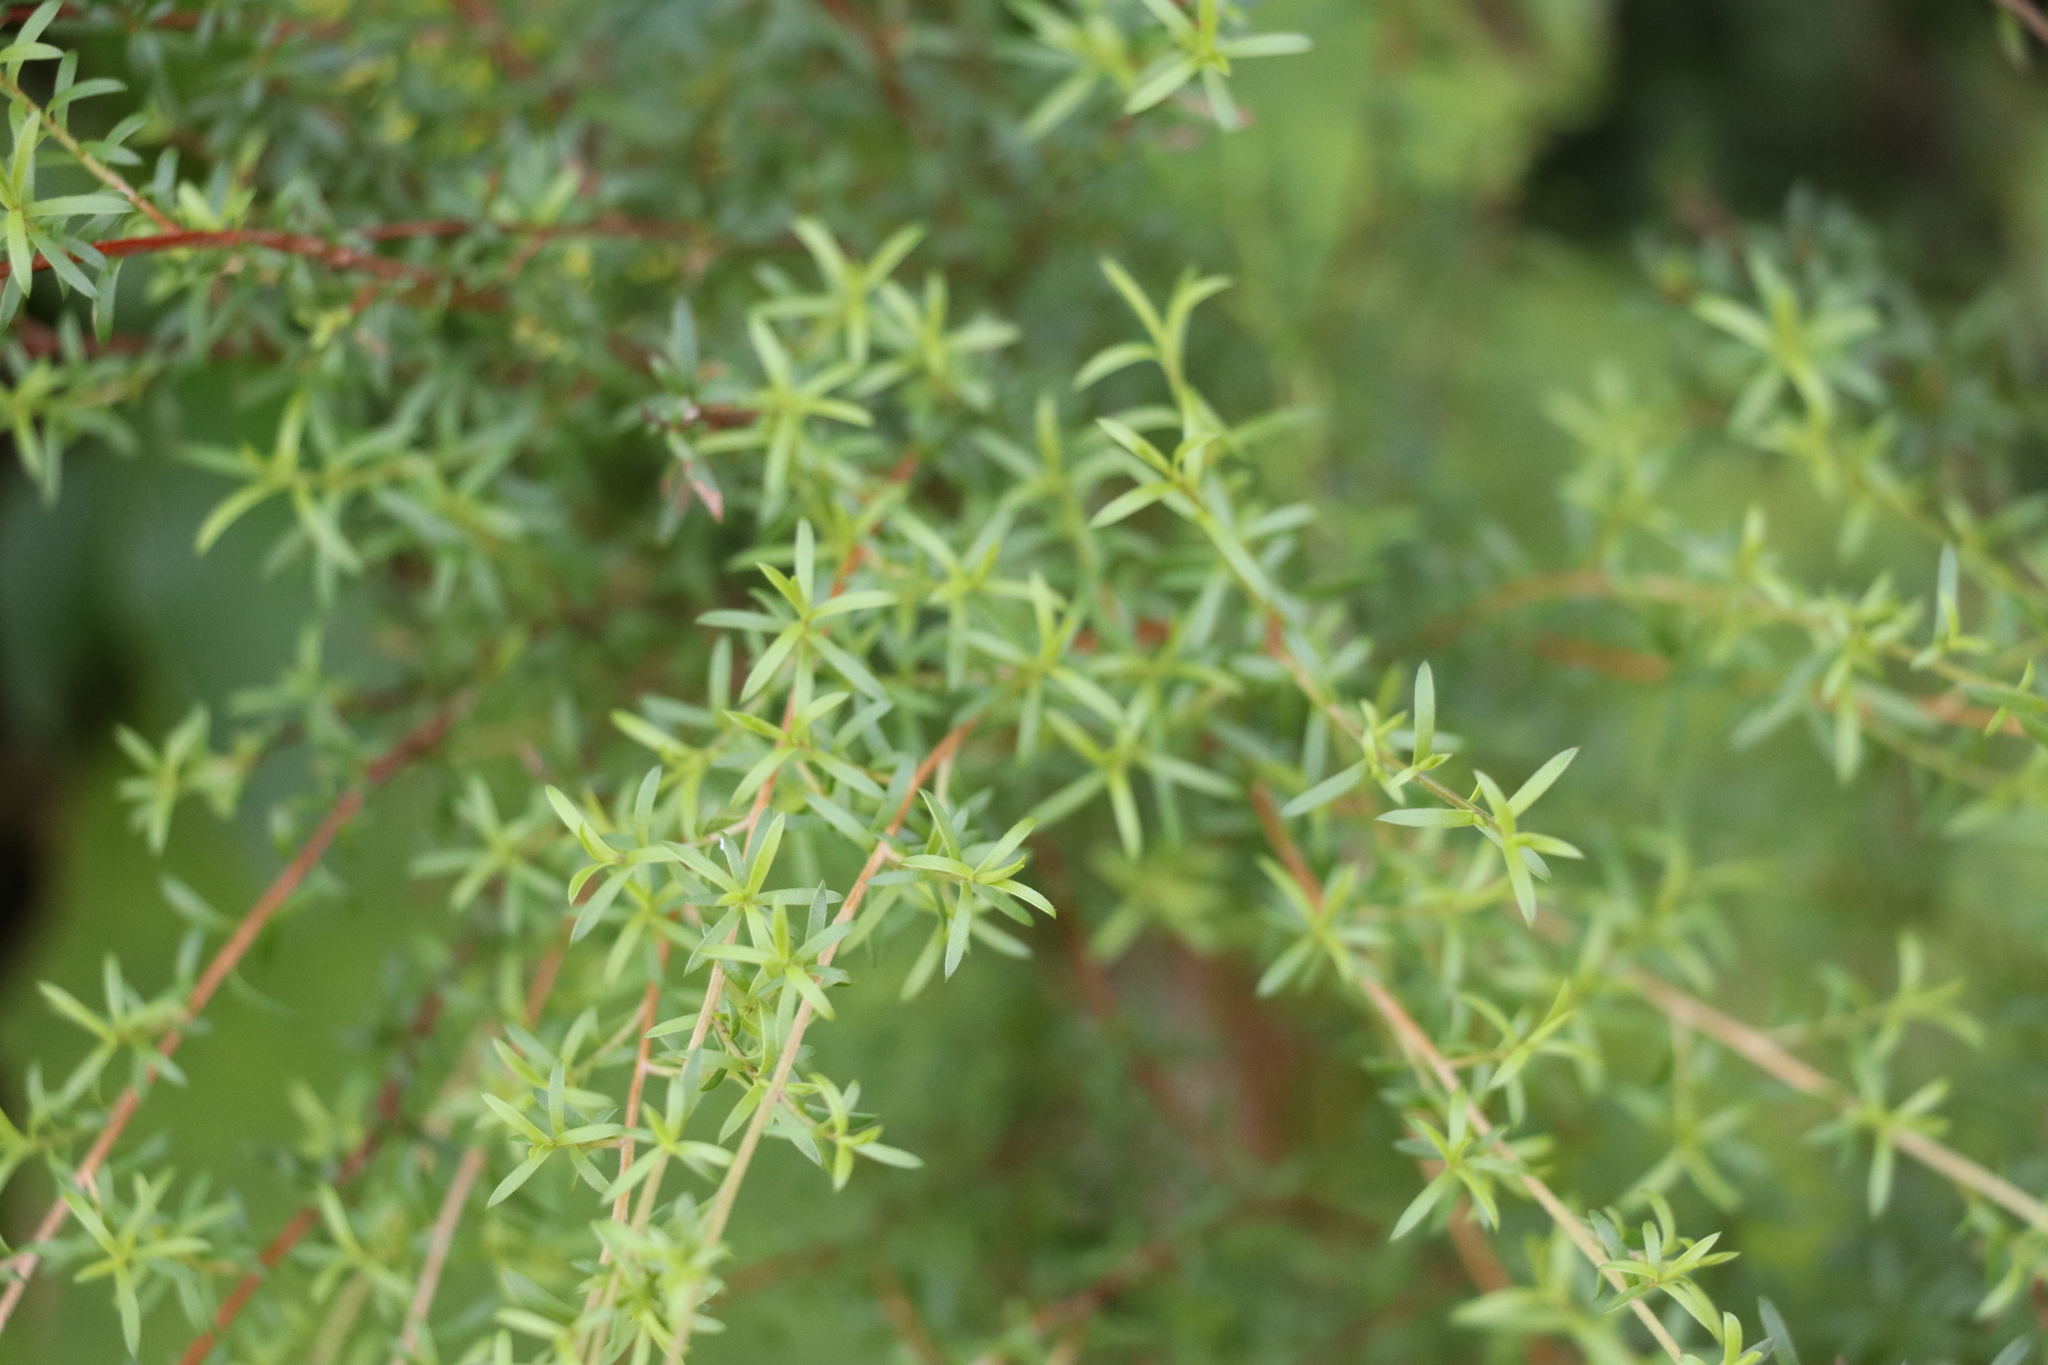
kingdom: Plantae
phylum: Tracheophyta
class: Magnoliopsida
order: Myrtales
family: Myrtaceae
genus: Kunzea
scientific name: Kunzea robusta
